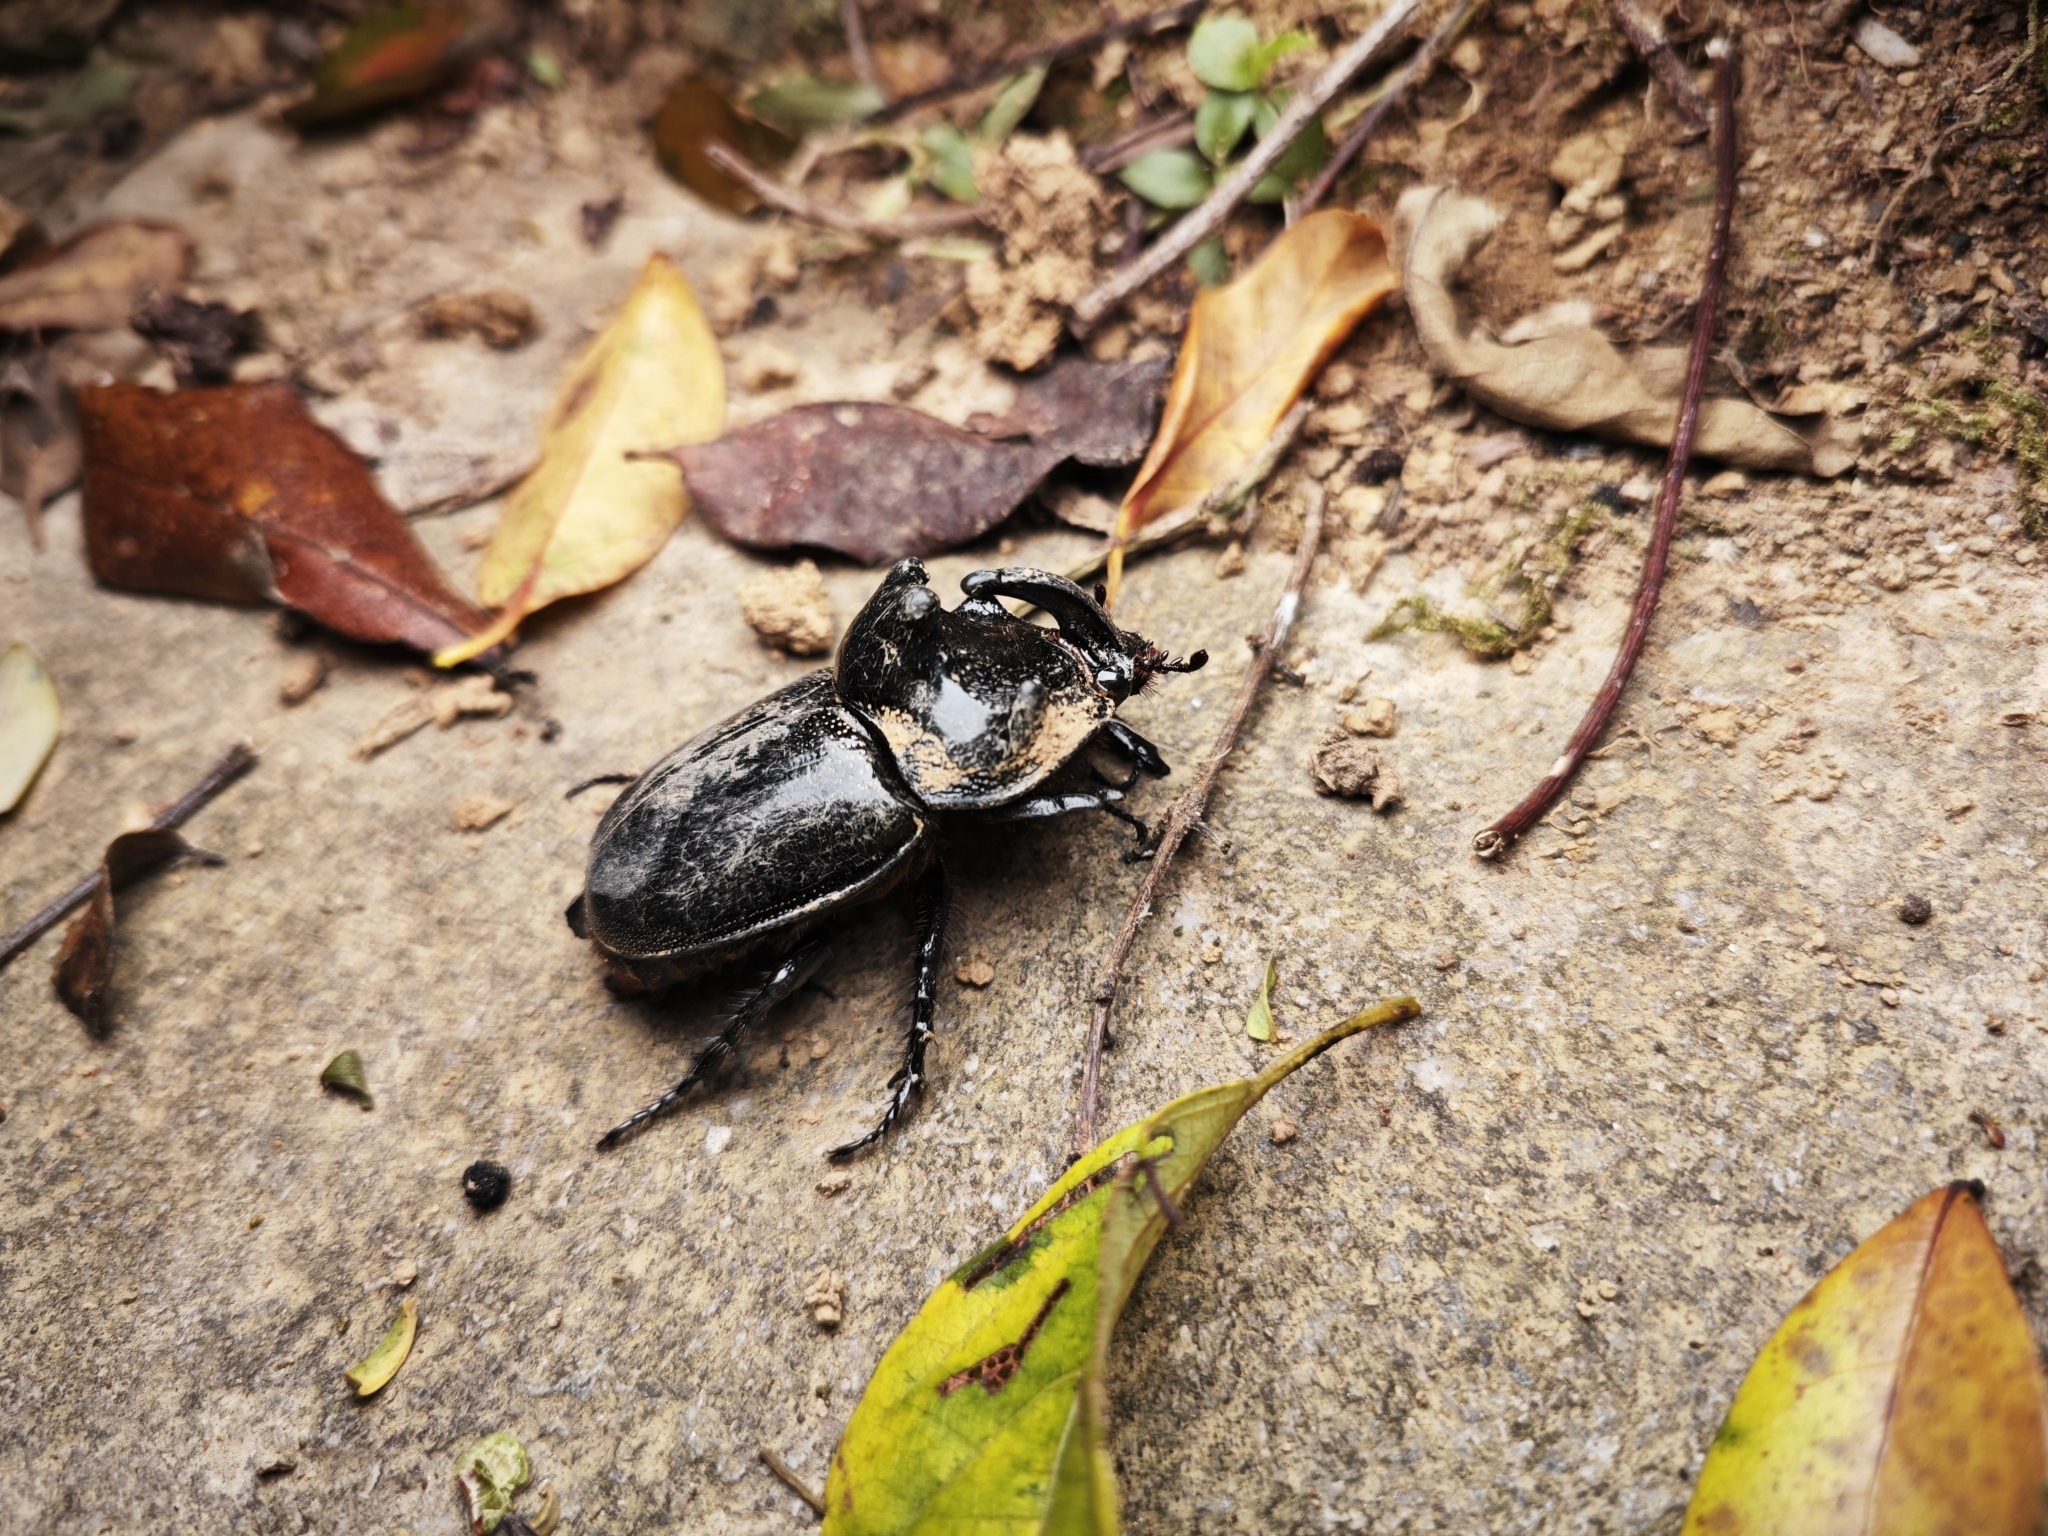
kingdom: Animalia
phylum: Arthropoda
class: Insecta
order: Coleoptera
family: Scarabaeidae
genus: Trichogomphus
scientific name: Trichogomphus mongol
